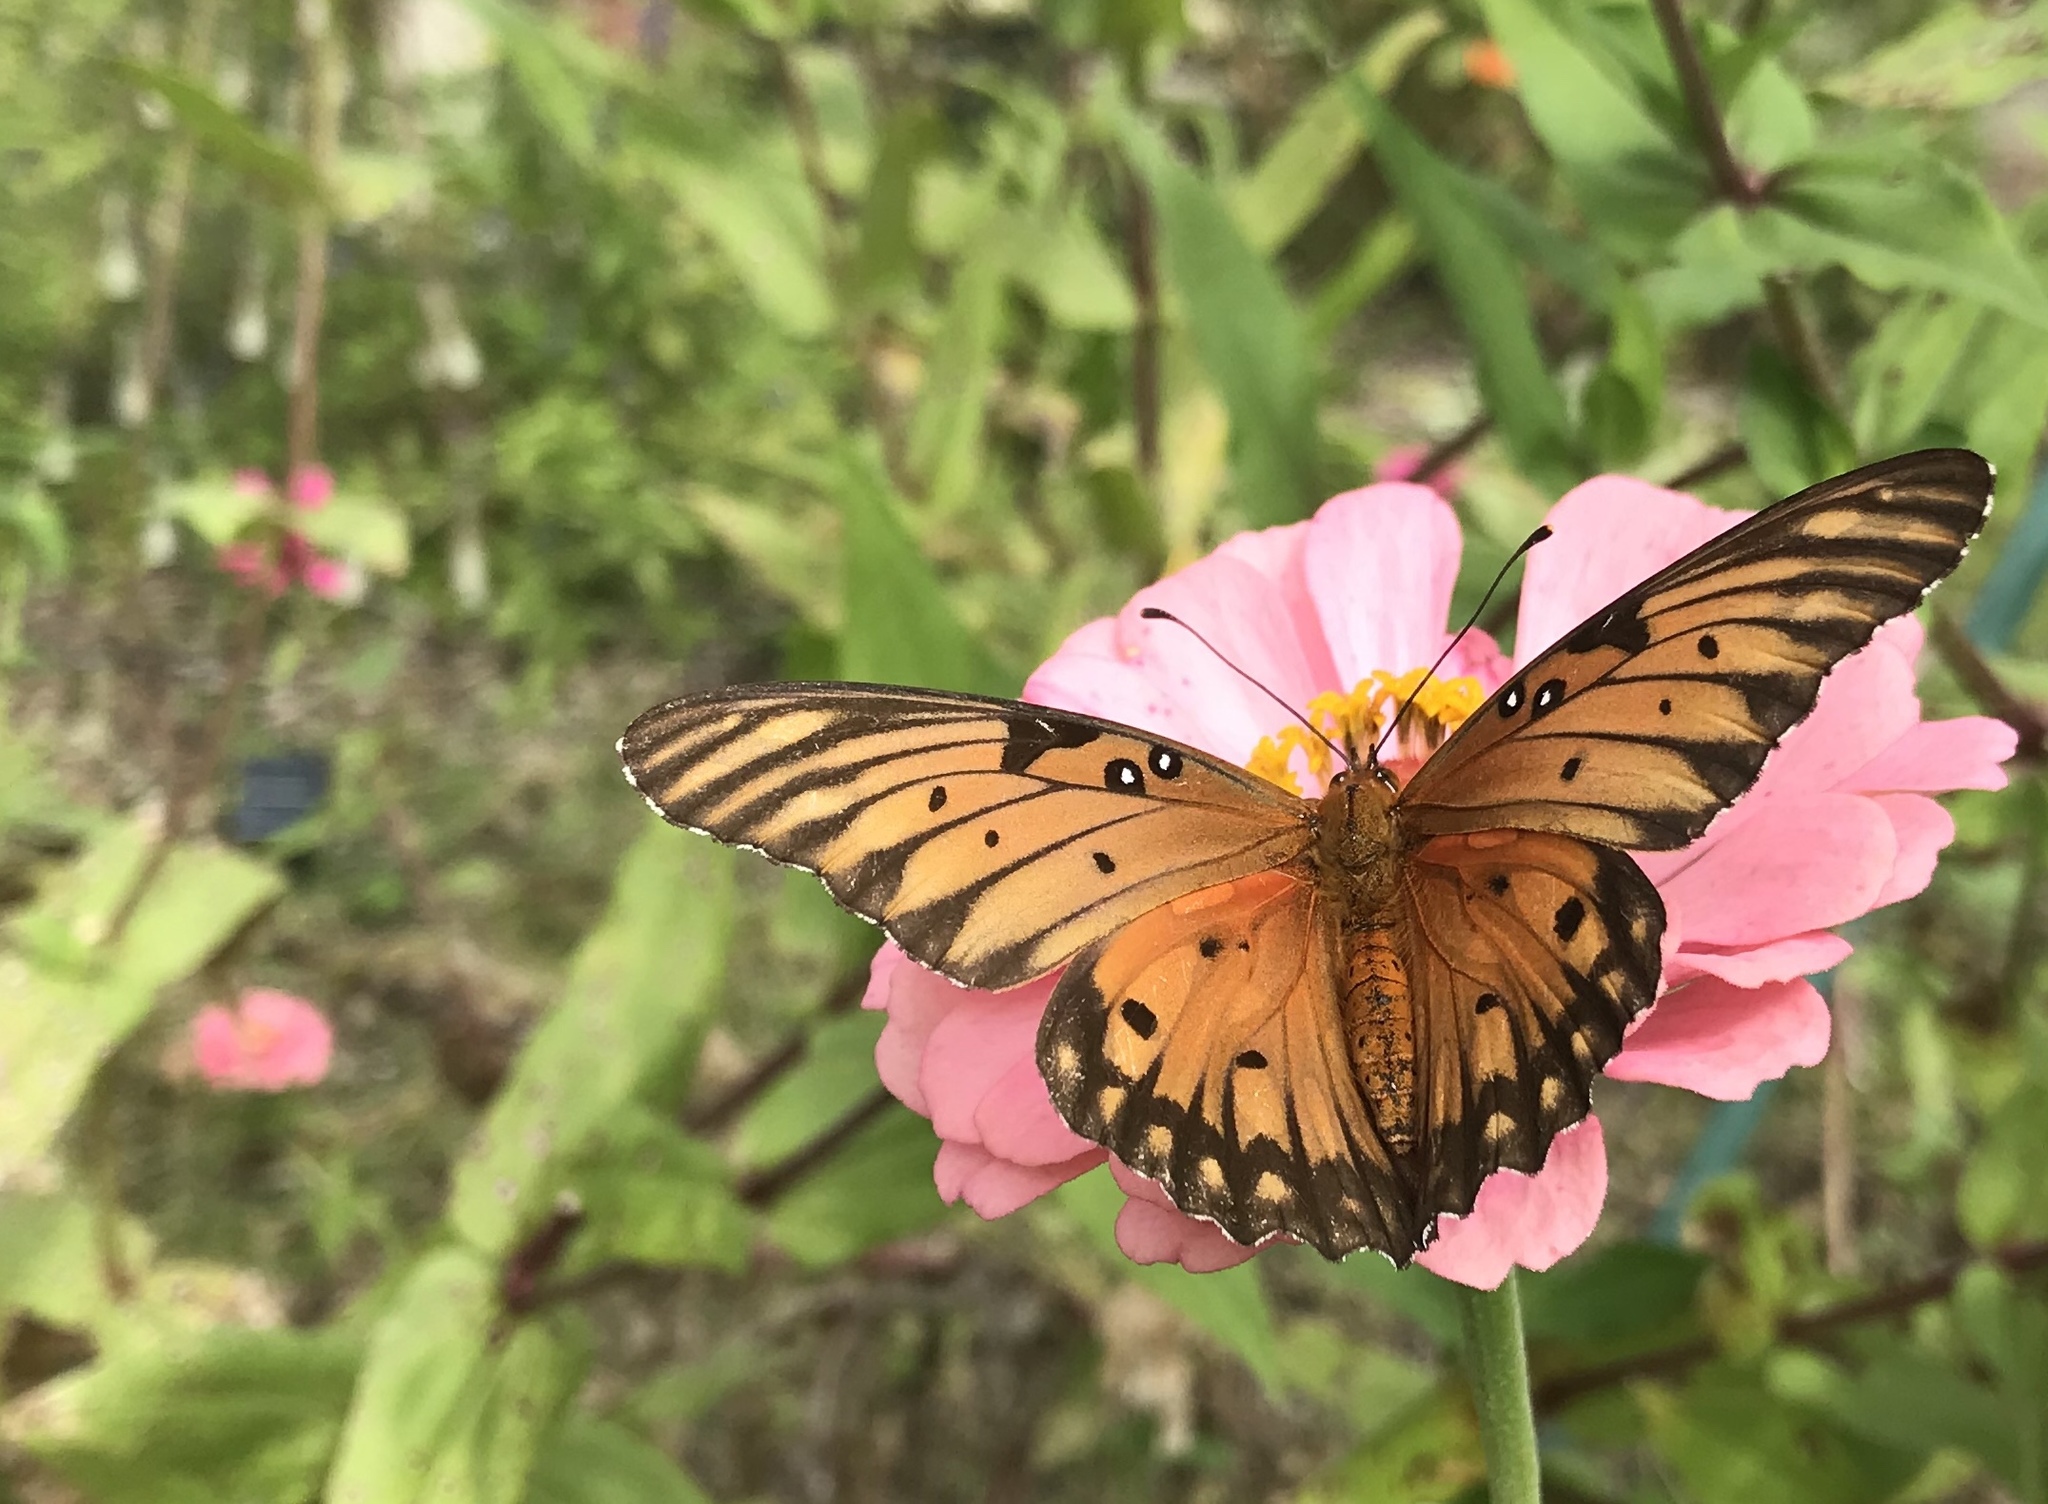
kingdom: Animalia
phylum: Arthropoda
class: Insecta
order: Lepidoptera
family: Nymphalidae
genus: Dione
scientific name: Dione vanillae
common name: Gulf fritillary
